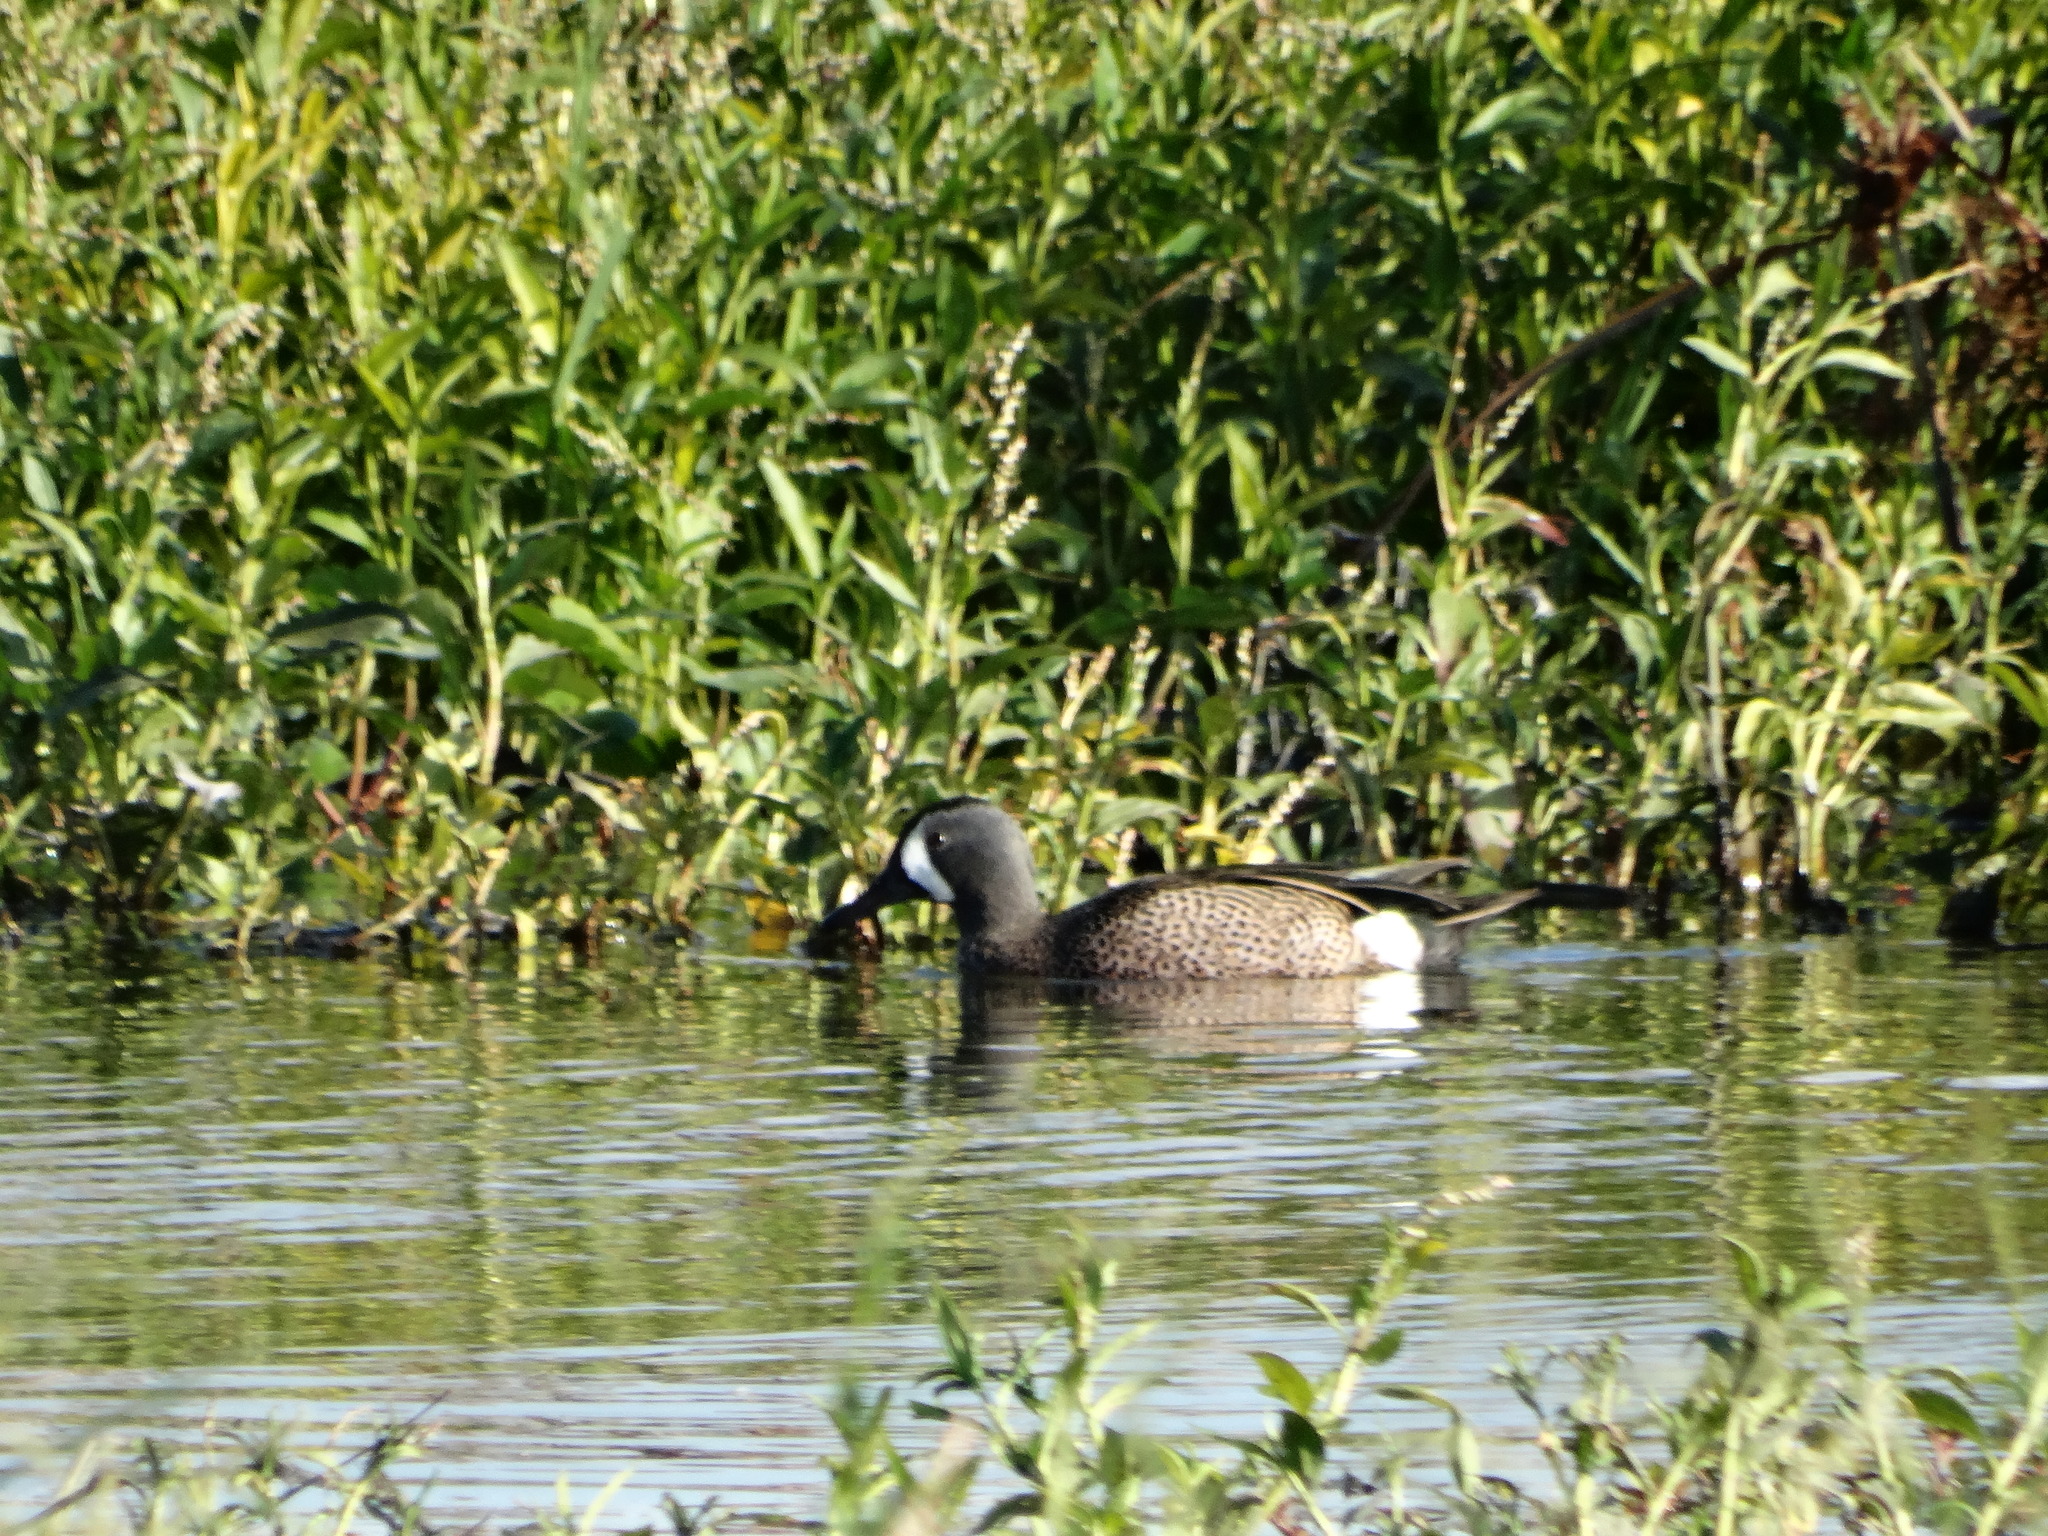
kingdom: Animalia
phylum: Chordata
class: Aves
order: Anseriformes
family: Anatidae
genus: Spatula
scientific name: Spatula discors
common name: Blue-winged teal
